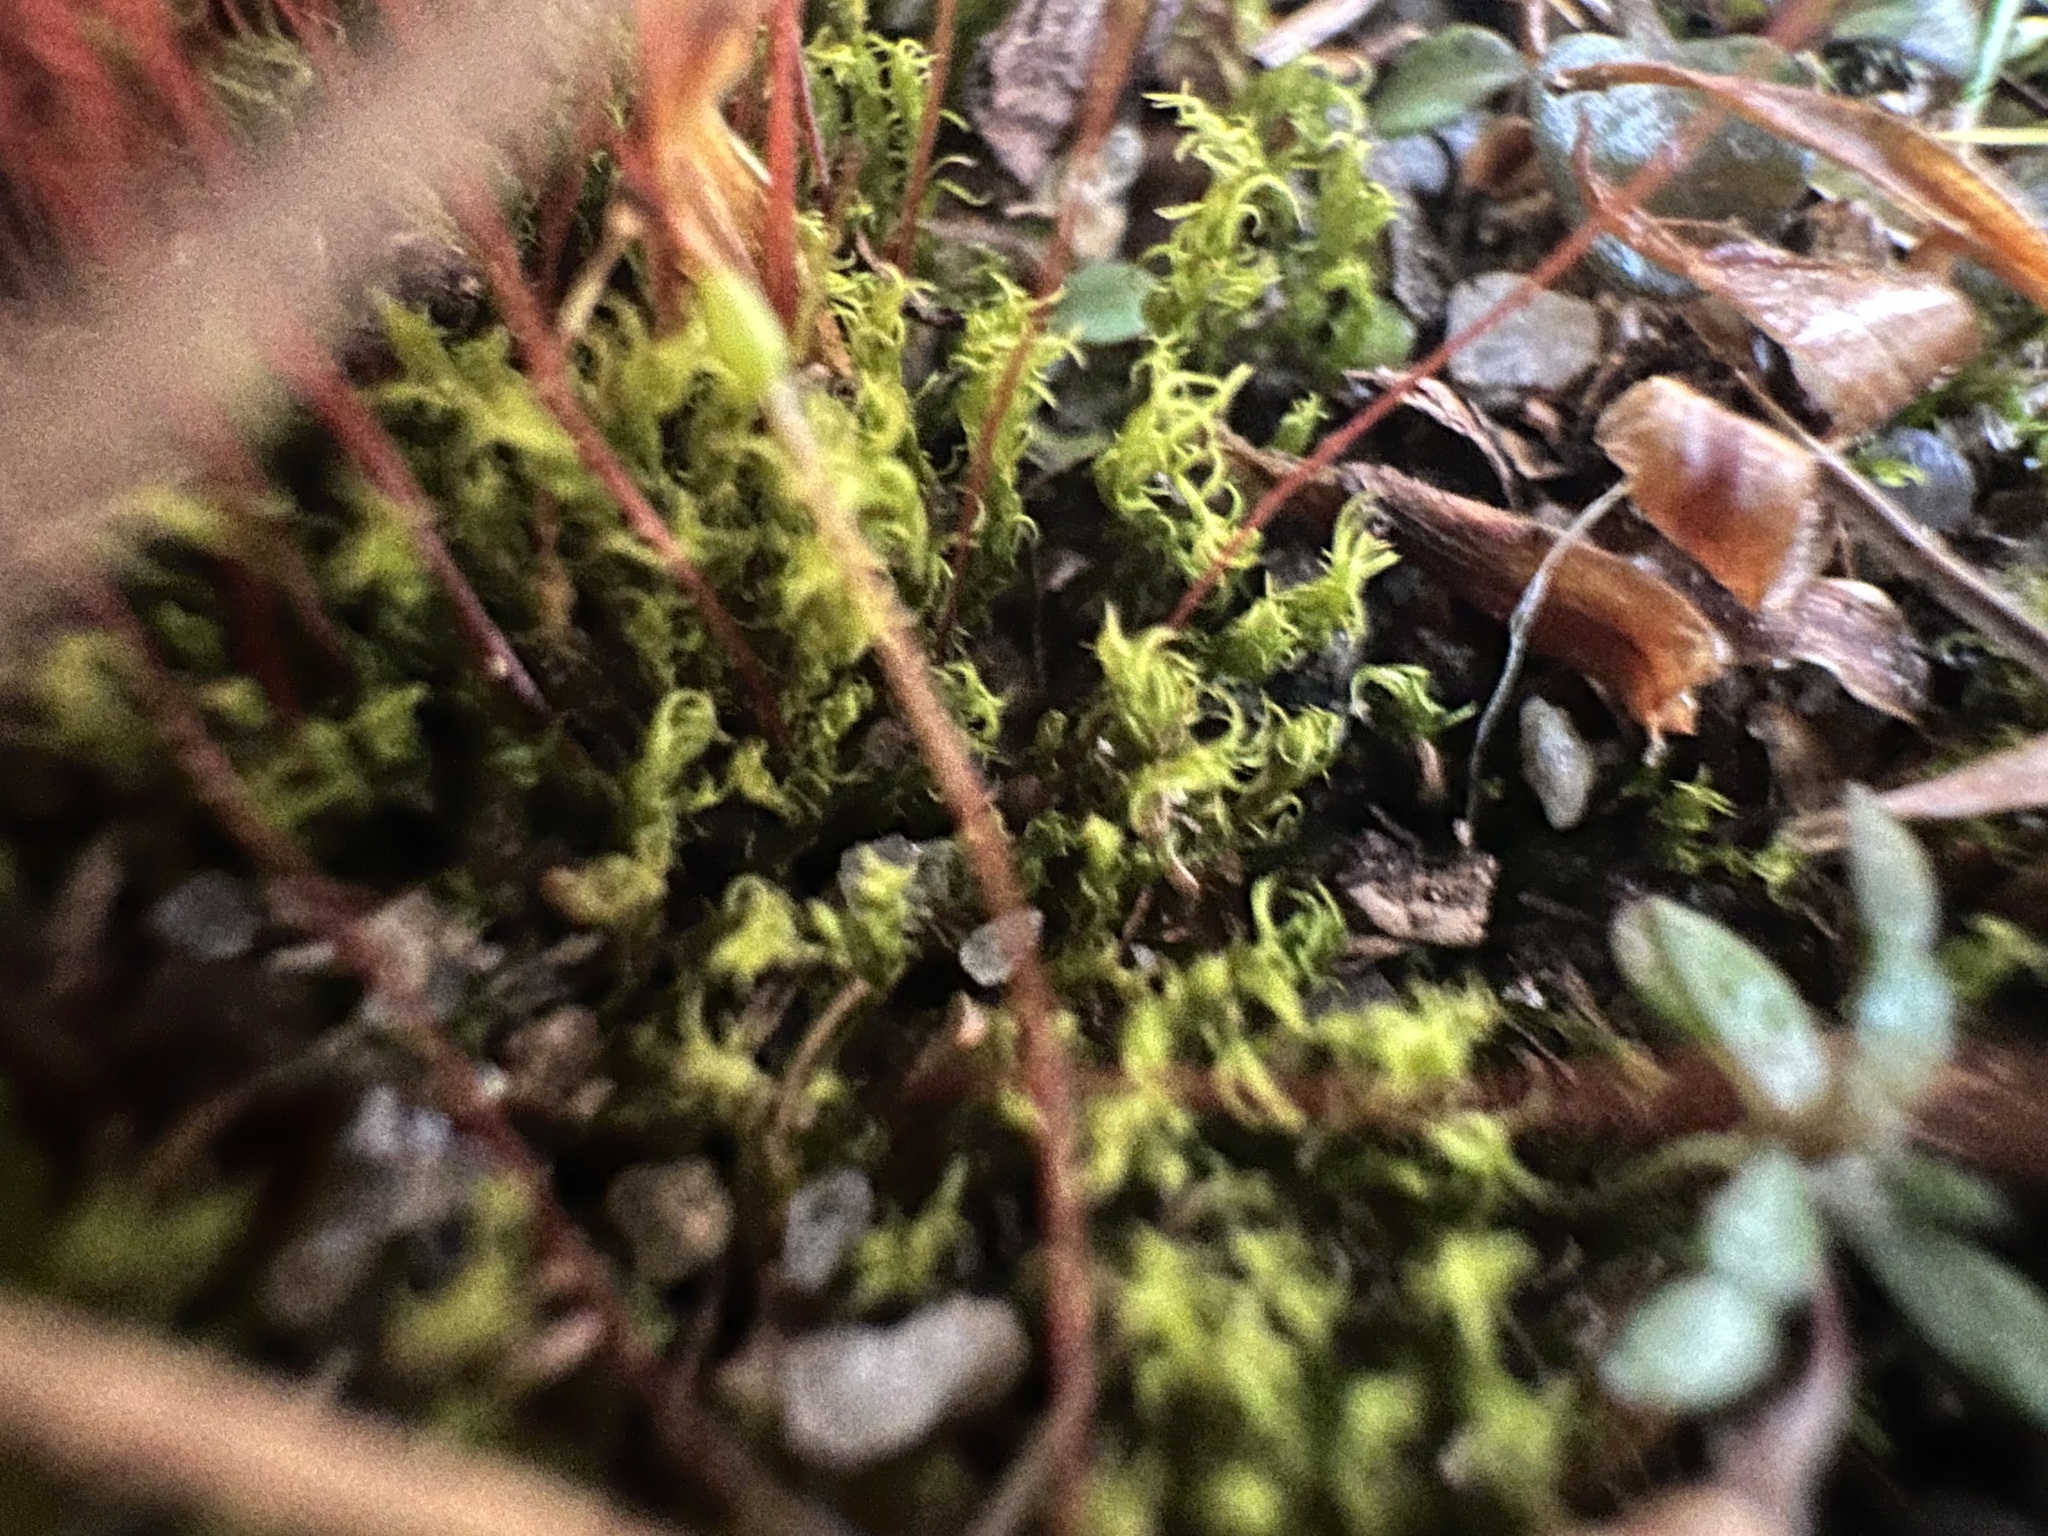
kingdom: Plantae
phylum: Bryophyta
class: Bryopsida
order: Dicranales
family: Ditrichaceae
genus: Ceratodon
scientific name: Ceratodon purpureus
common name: Redshank
